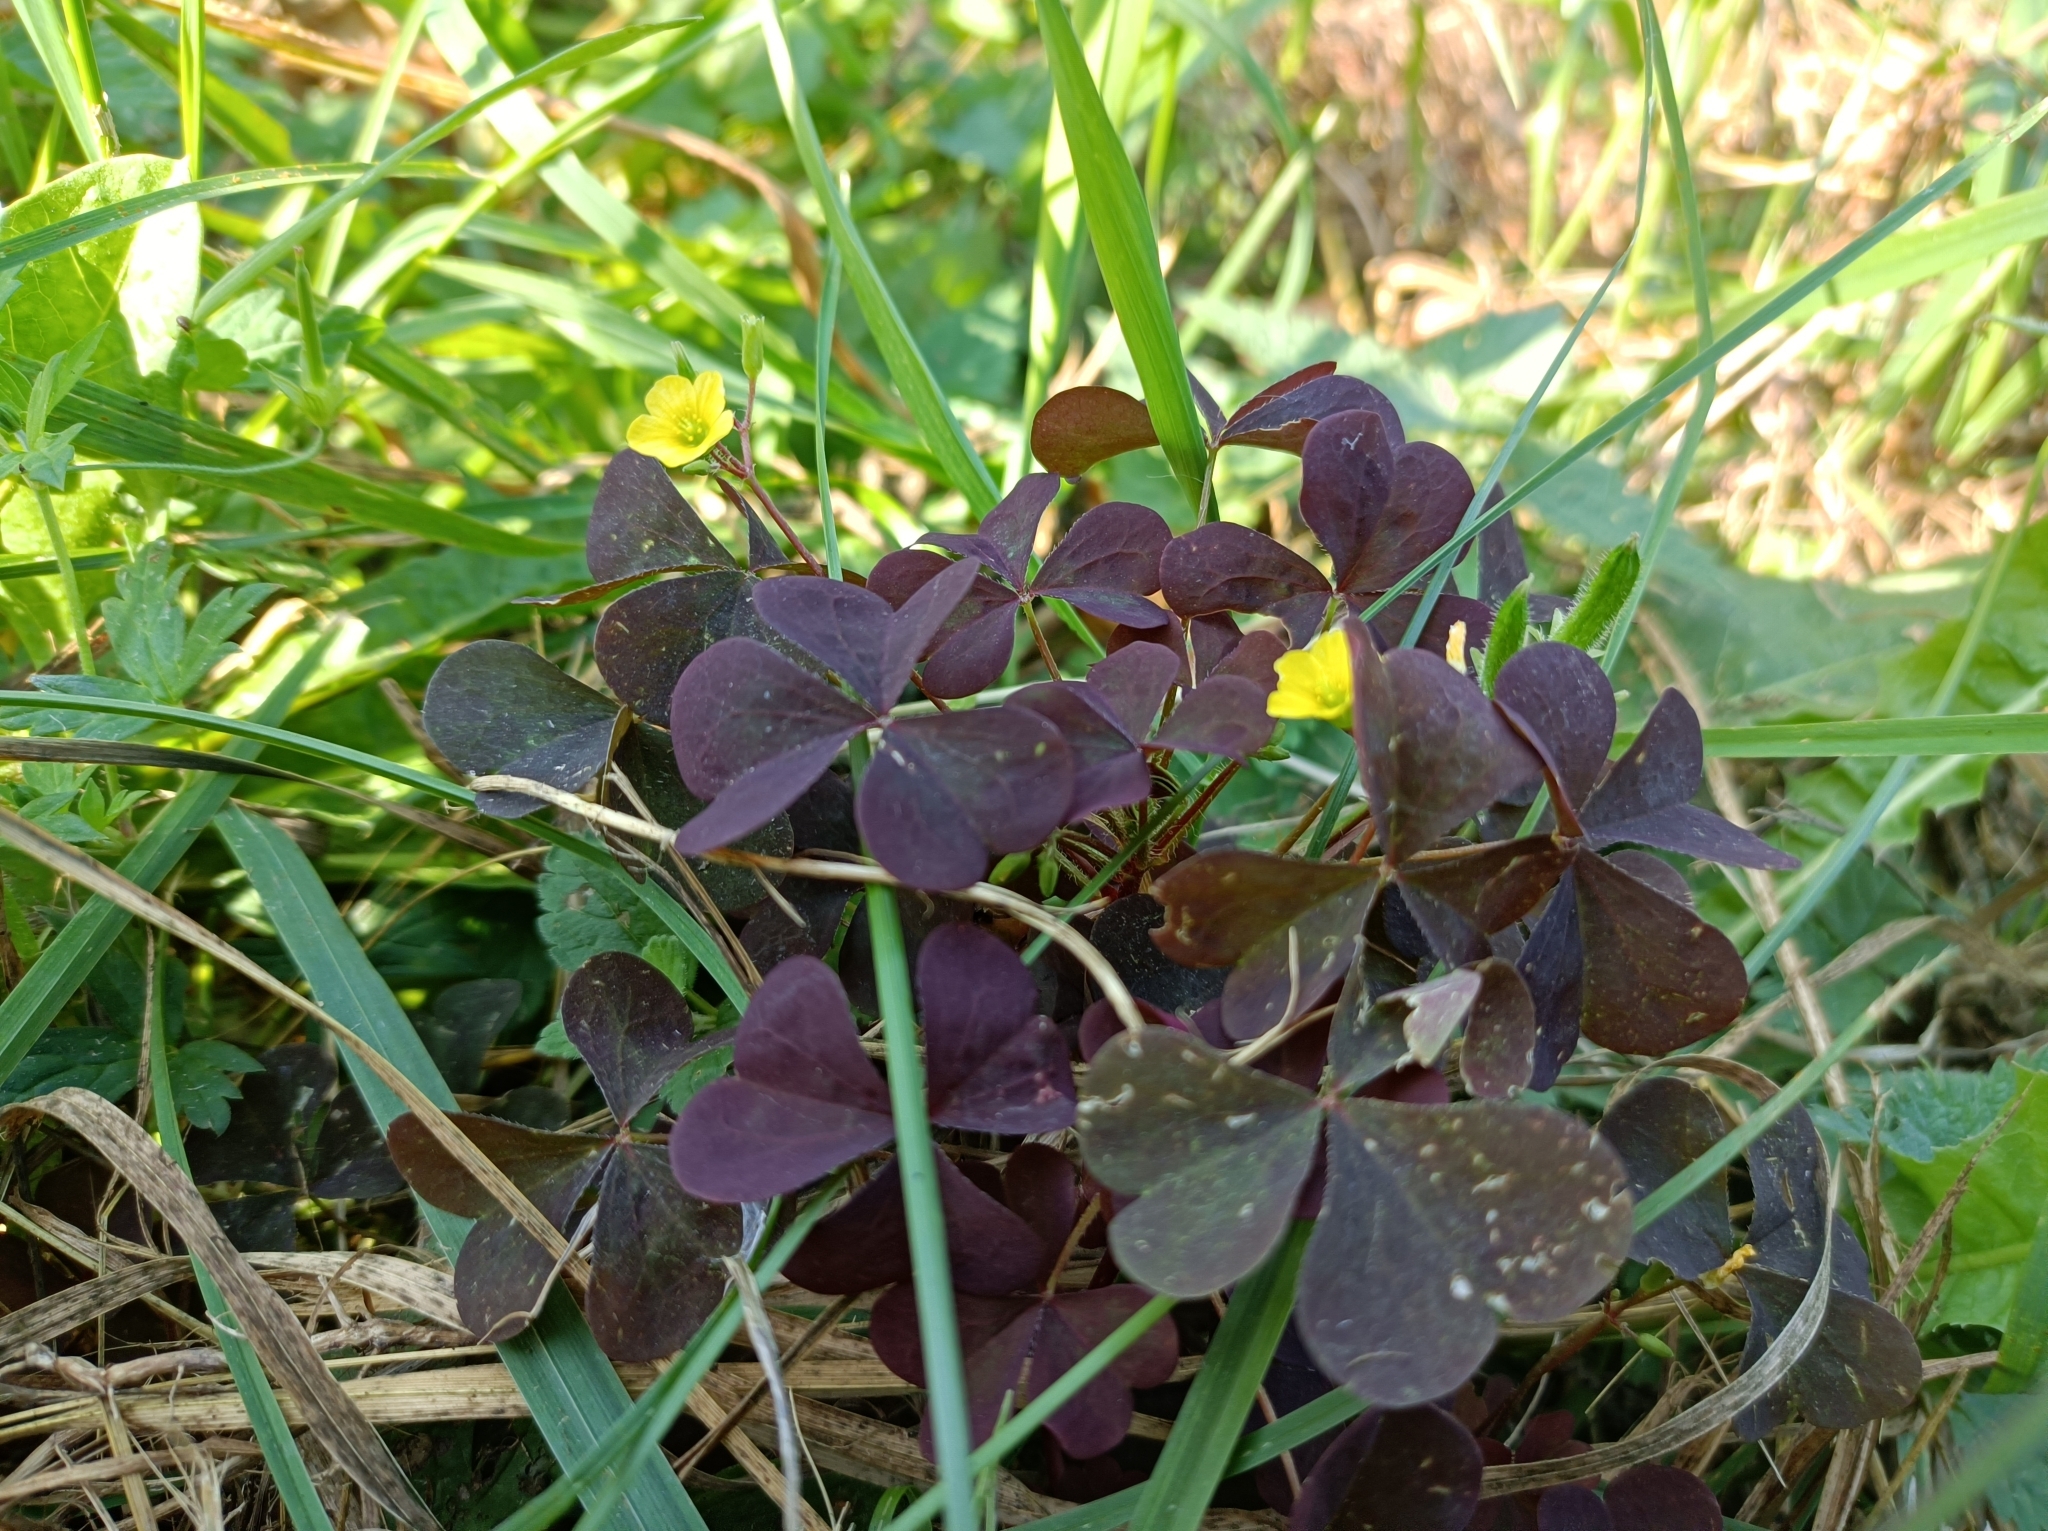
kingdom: Plantae
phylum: Tracheophyta
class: Magnoliopsida
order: Oxalidales
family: Oxalidaceae
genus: Oxalis
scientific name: Oxalis stricta
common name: Upright yellow-sorrel
